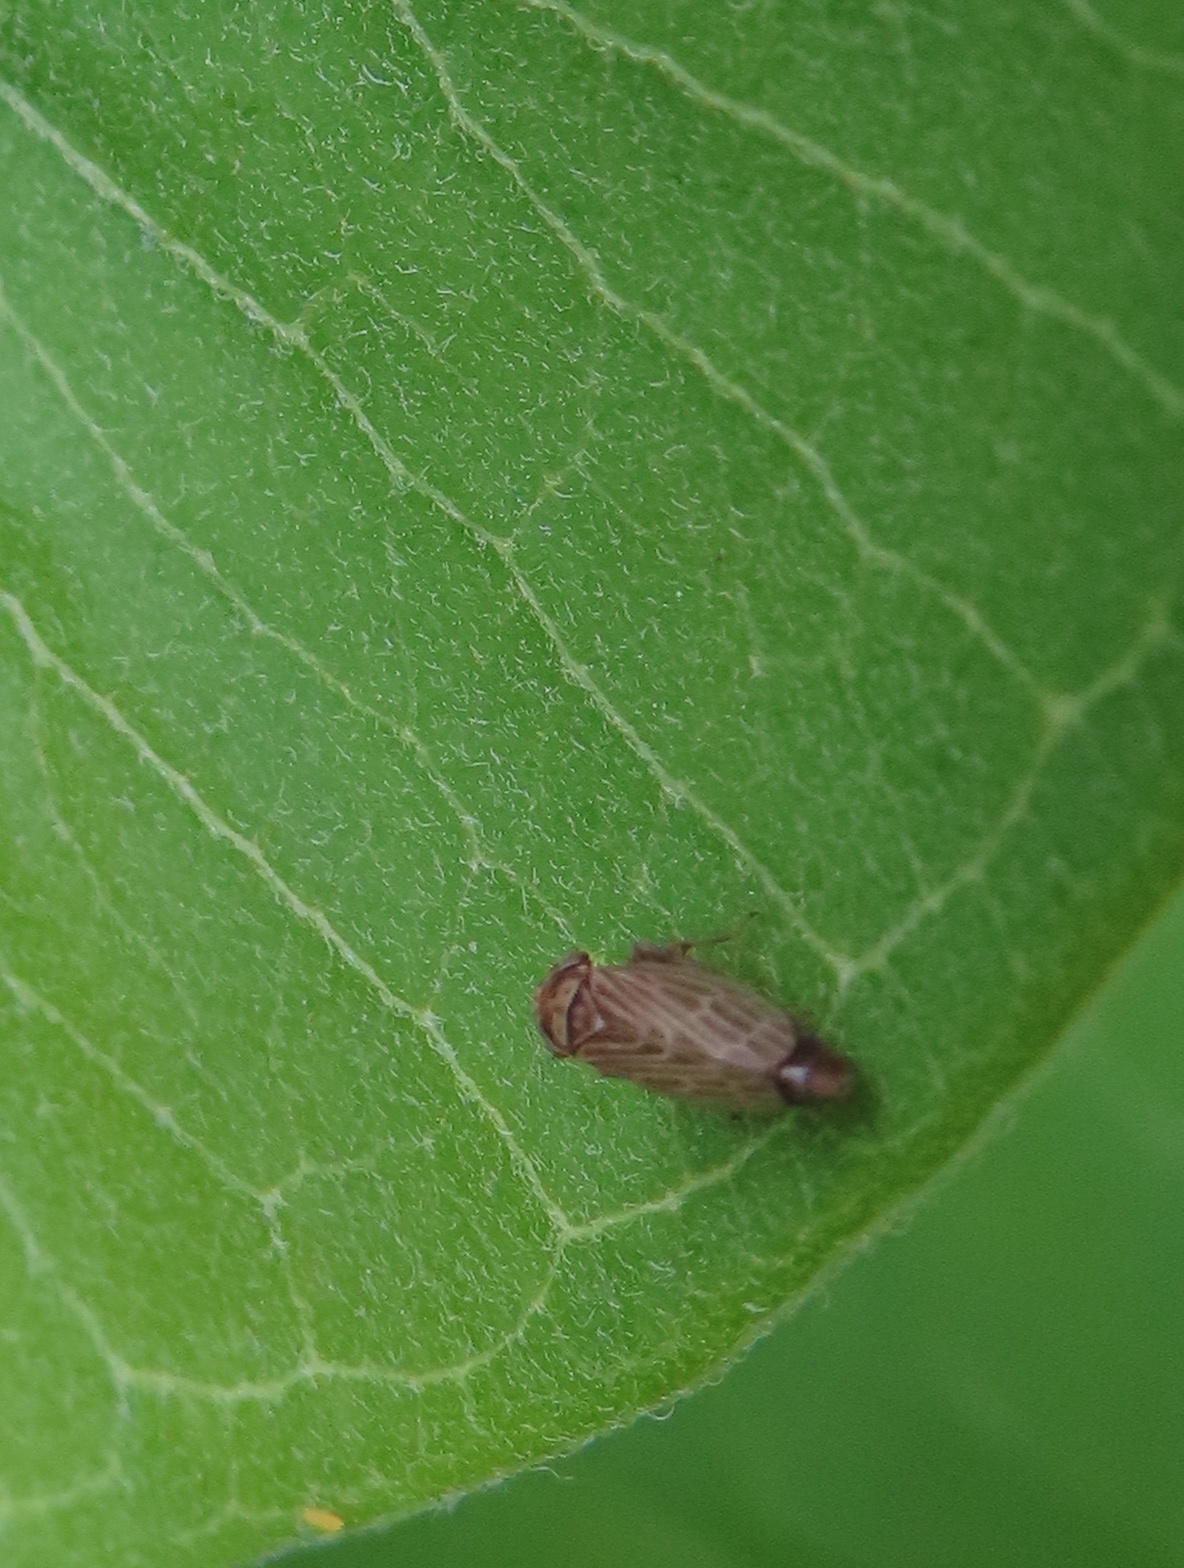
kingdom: Animalia
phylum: Arthropoda
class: Insecta
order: Hemiptera
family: Cicadellidae
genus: Agalliota
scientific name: Agalliota quadripunctata
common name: The four-spotted clover leafhopper
